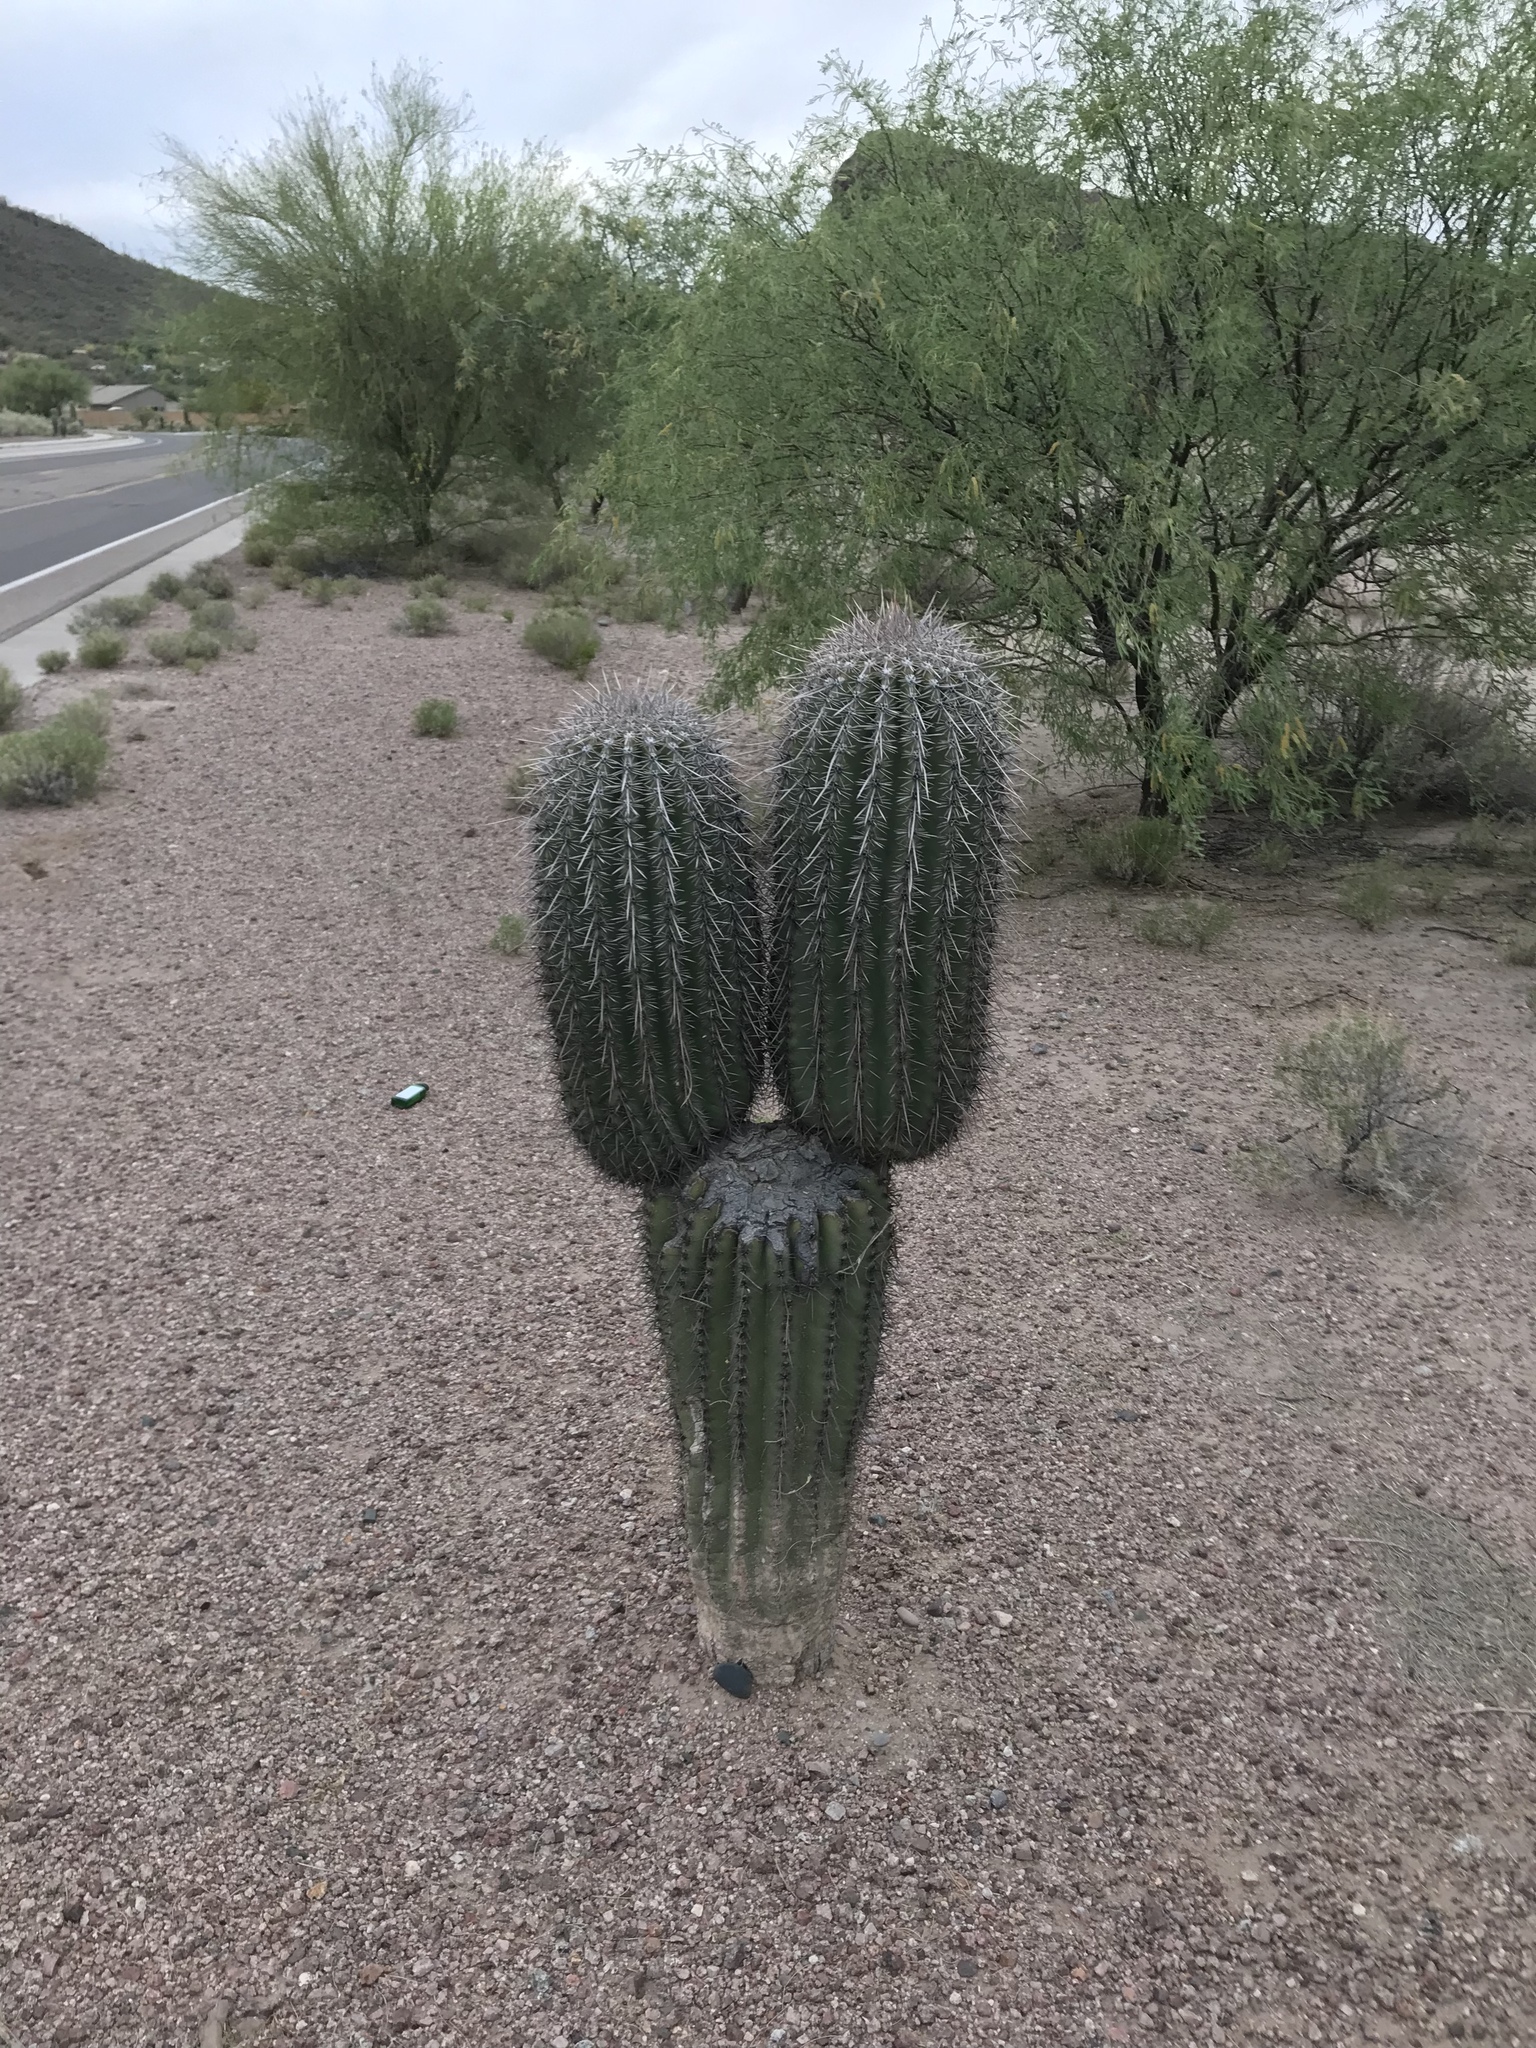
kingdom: Plantae
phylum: Tracheophyta
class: Magnoliopsida
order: Caryophyllales
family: Cactaceae
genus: Carnegiea
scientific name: Carnegiea gigantea
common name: Saguaro
